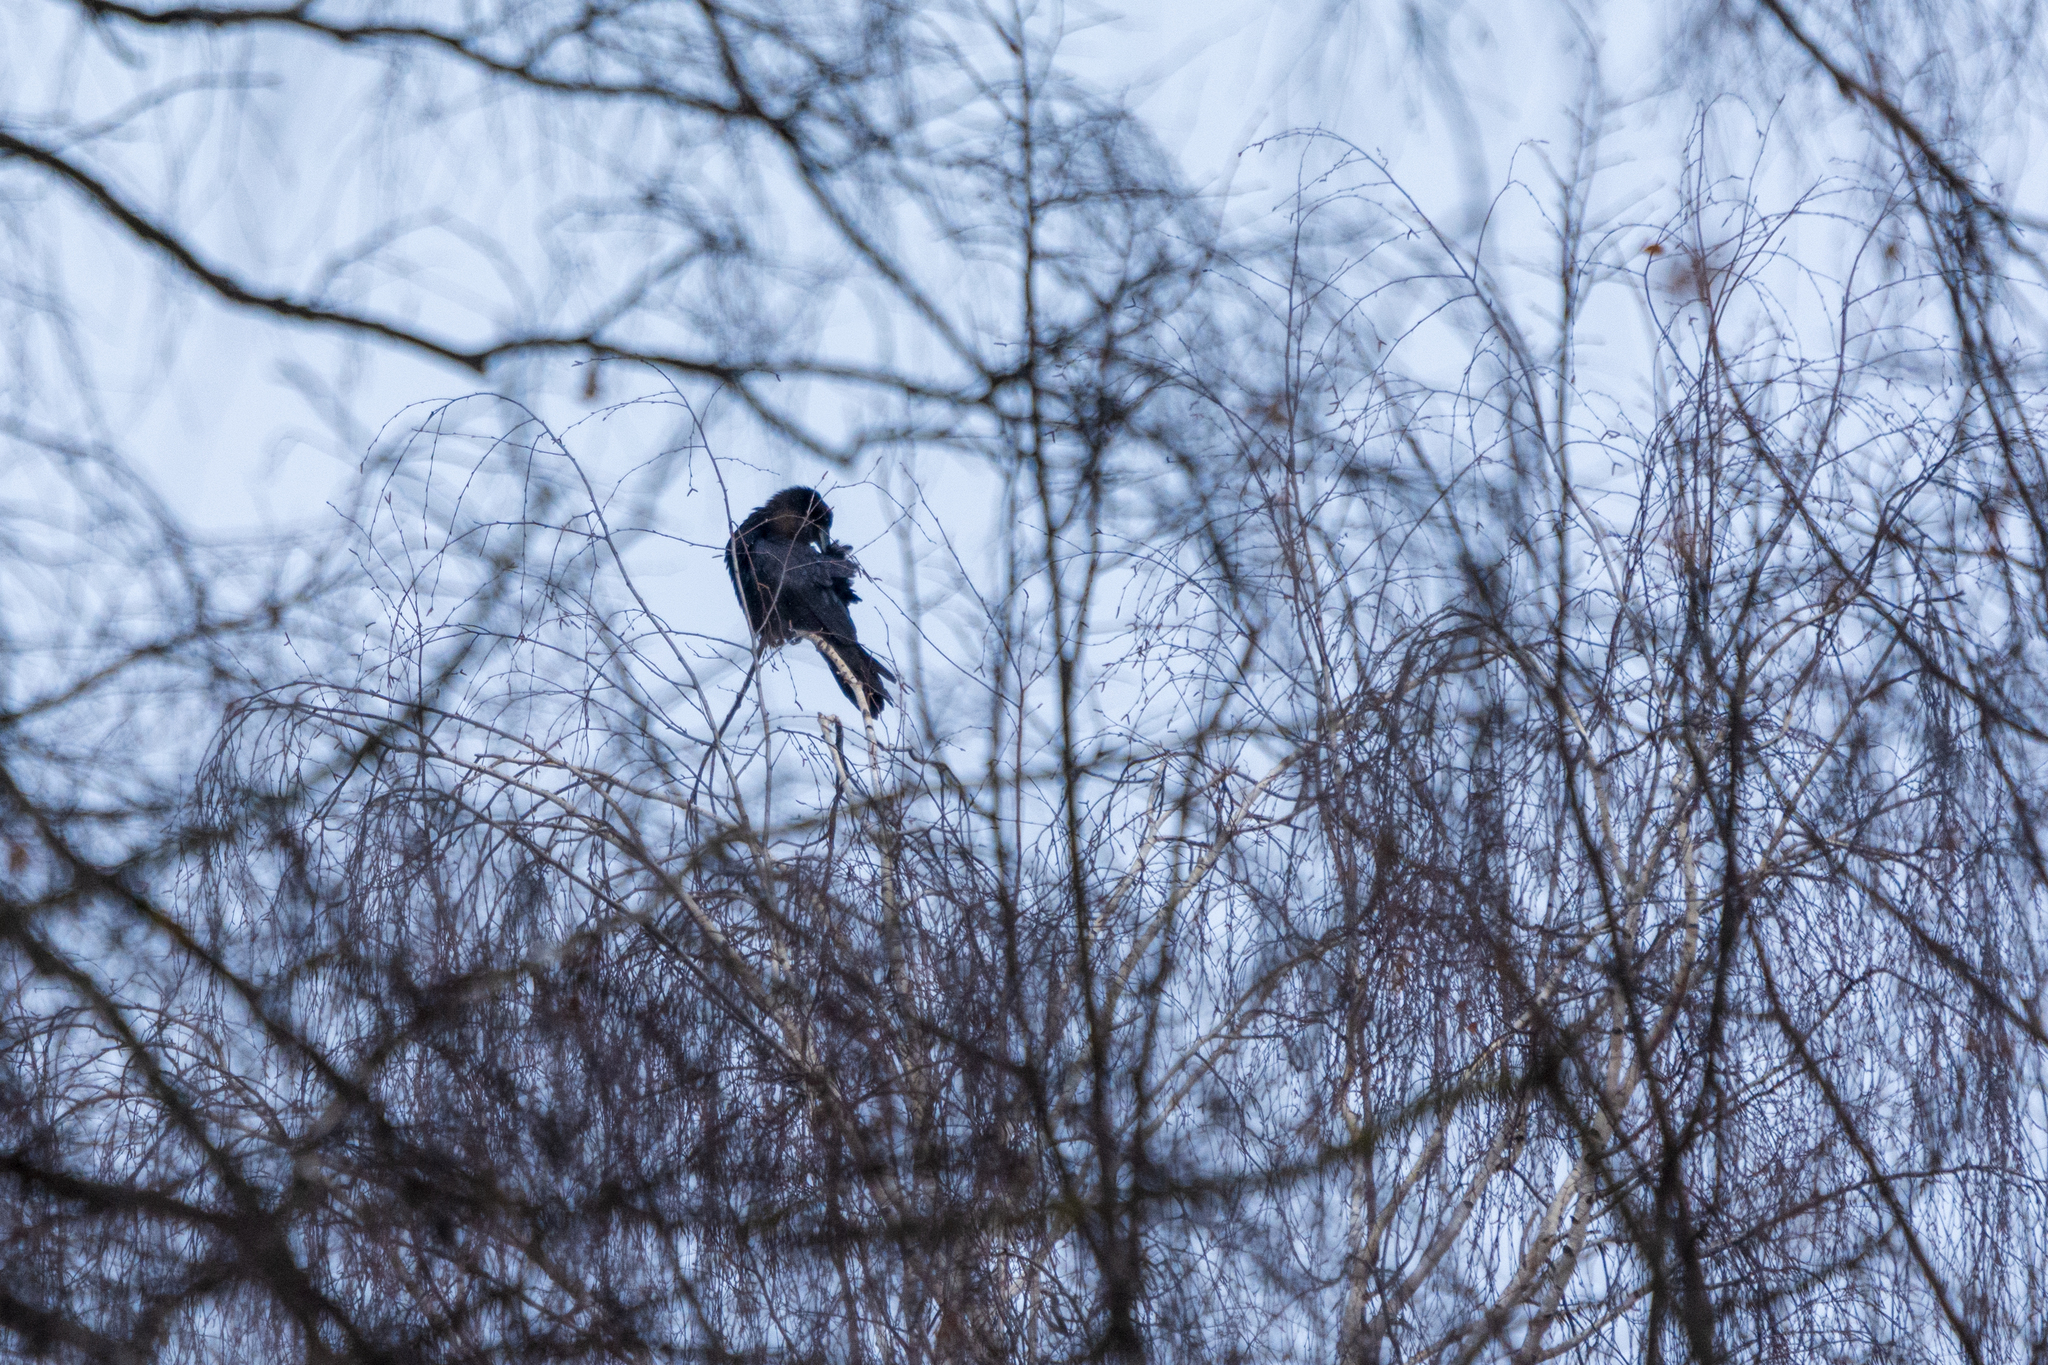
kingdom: Animalia
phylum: Chordata
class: Aves
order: Passeriformes
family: Corvidae
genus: Corvus
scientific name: Corvus corax
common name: Common raven
